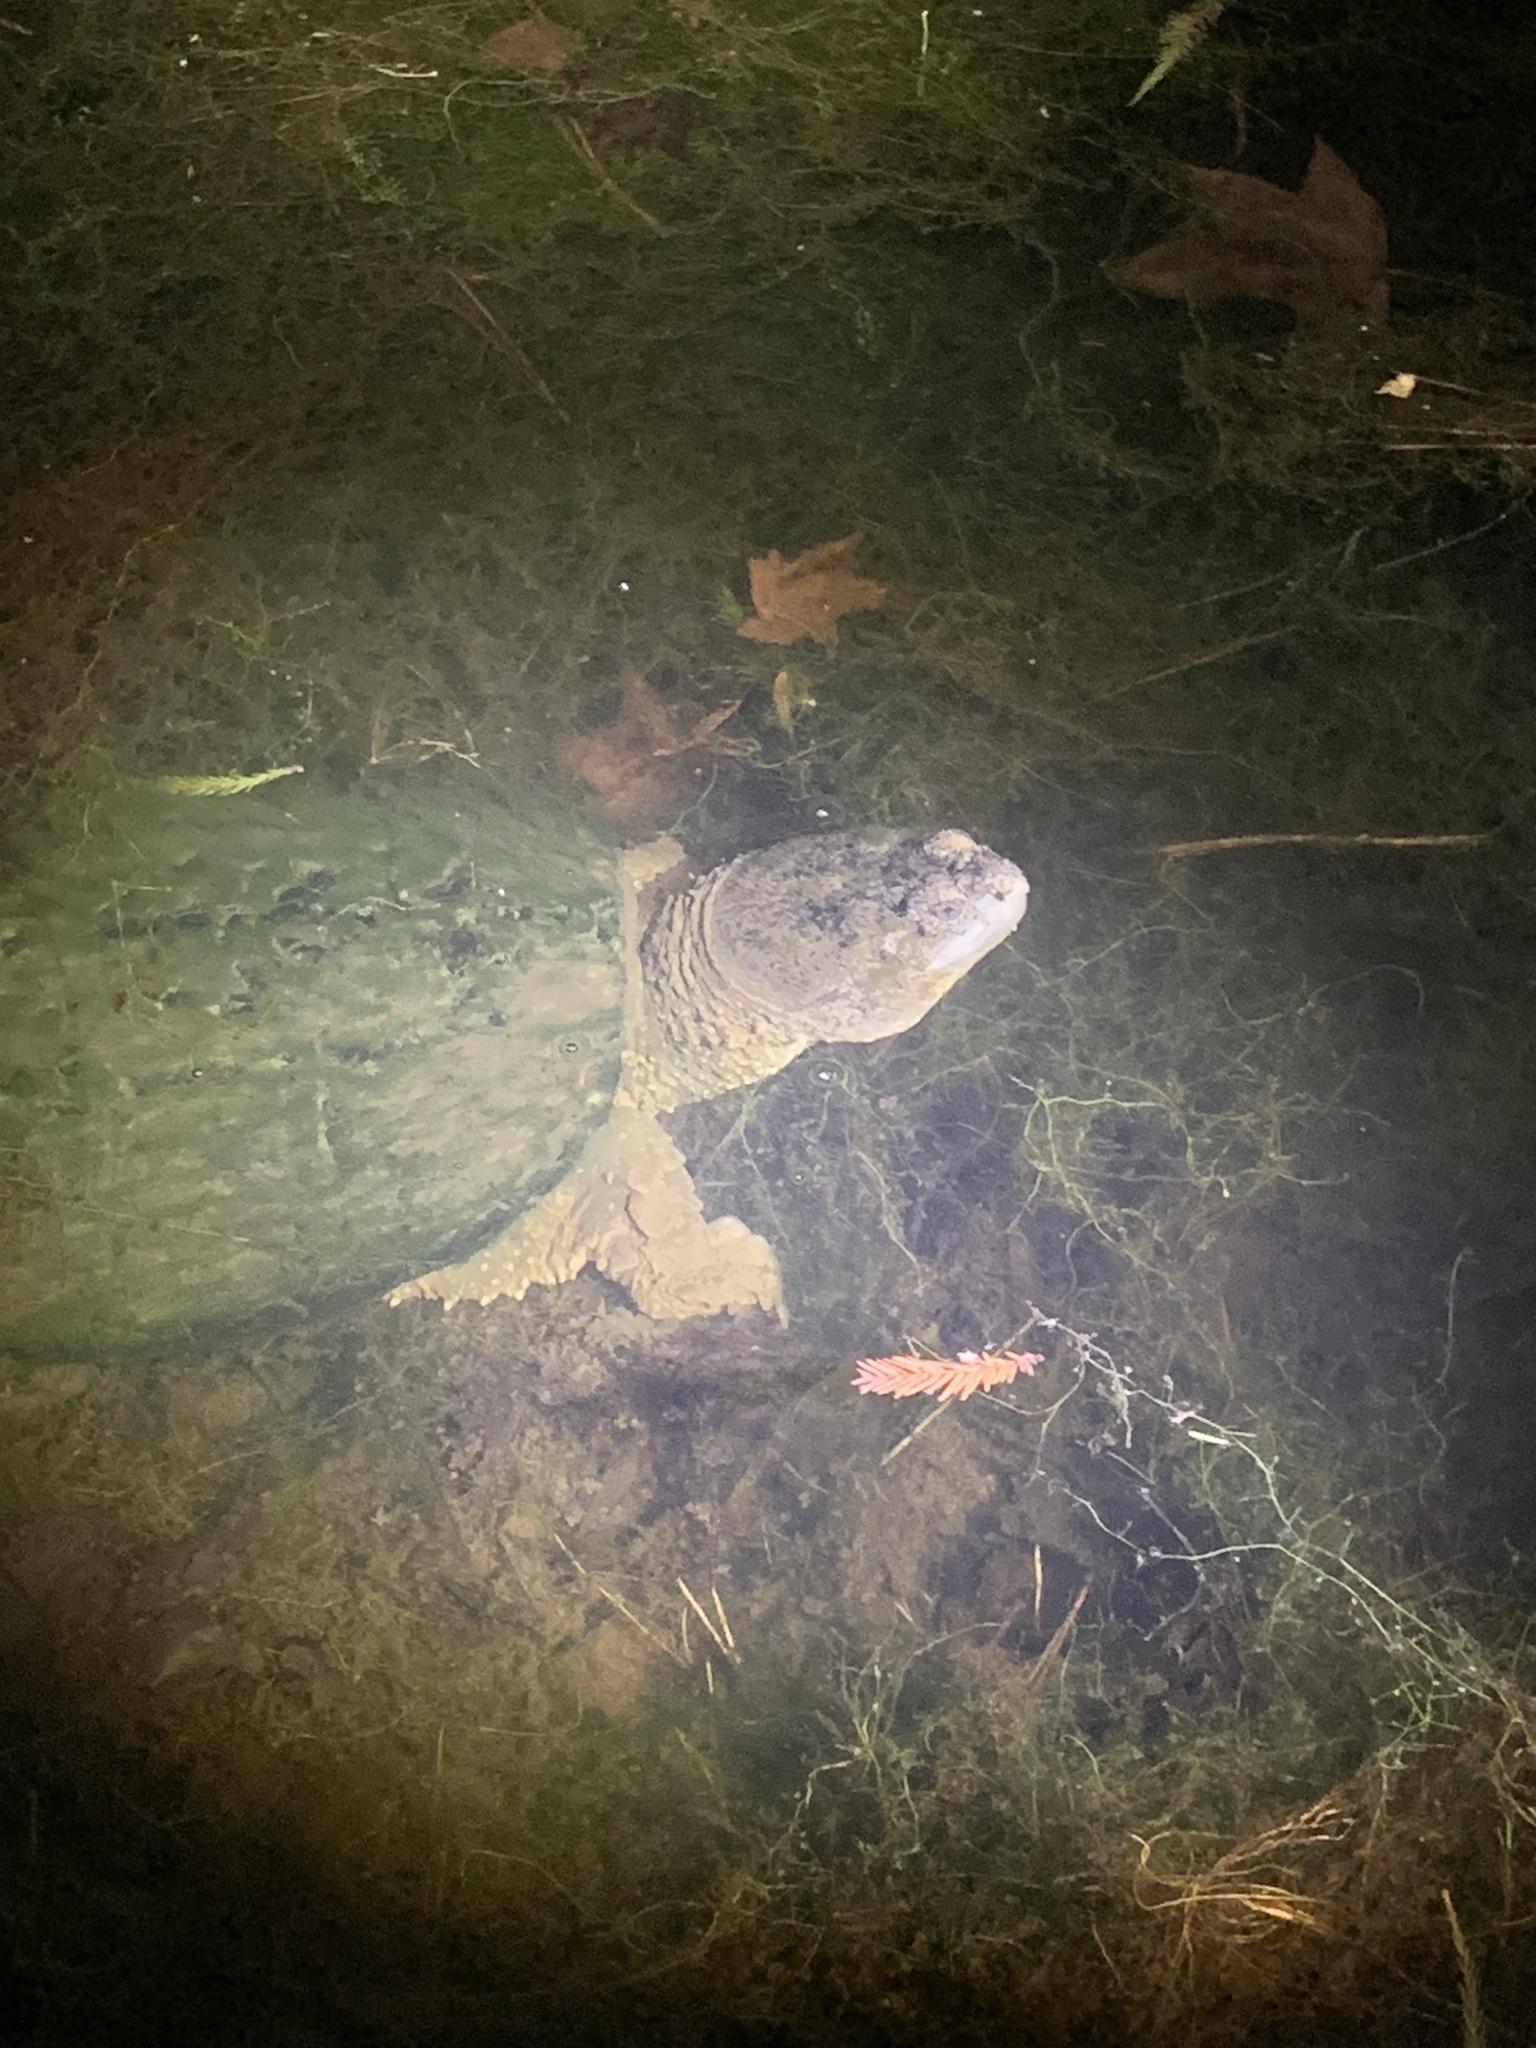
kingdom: Animalia
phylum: Chordata
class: Testudines
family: Chelydridae
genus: Chelydra
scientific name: Chelydra serpentina
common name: Common snapping turtle
